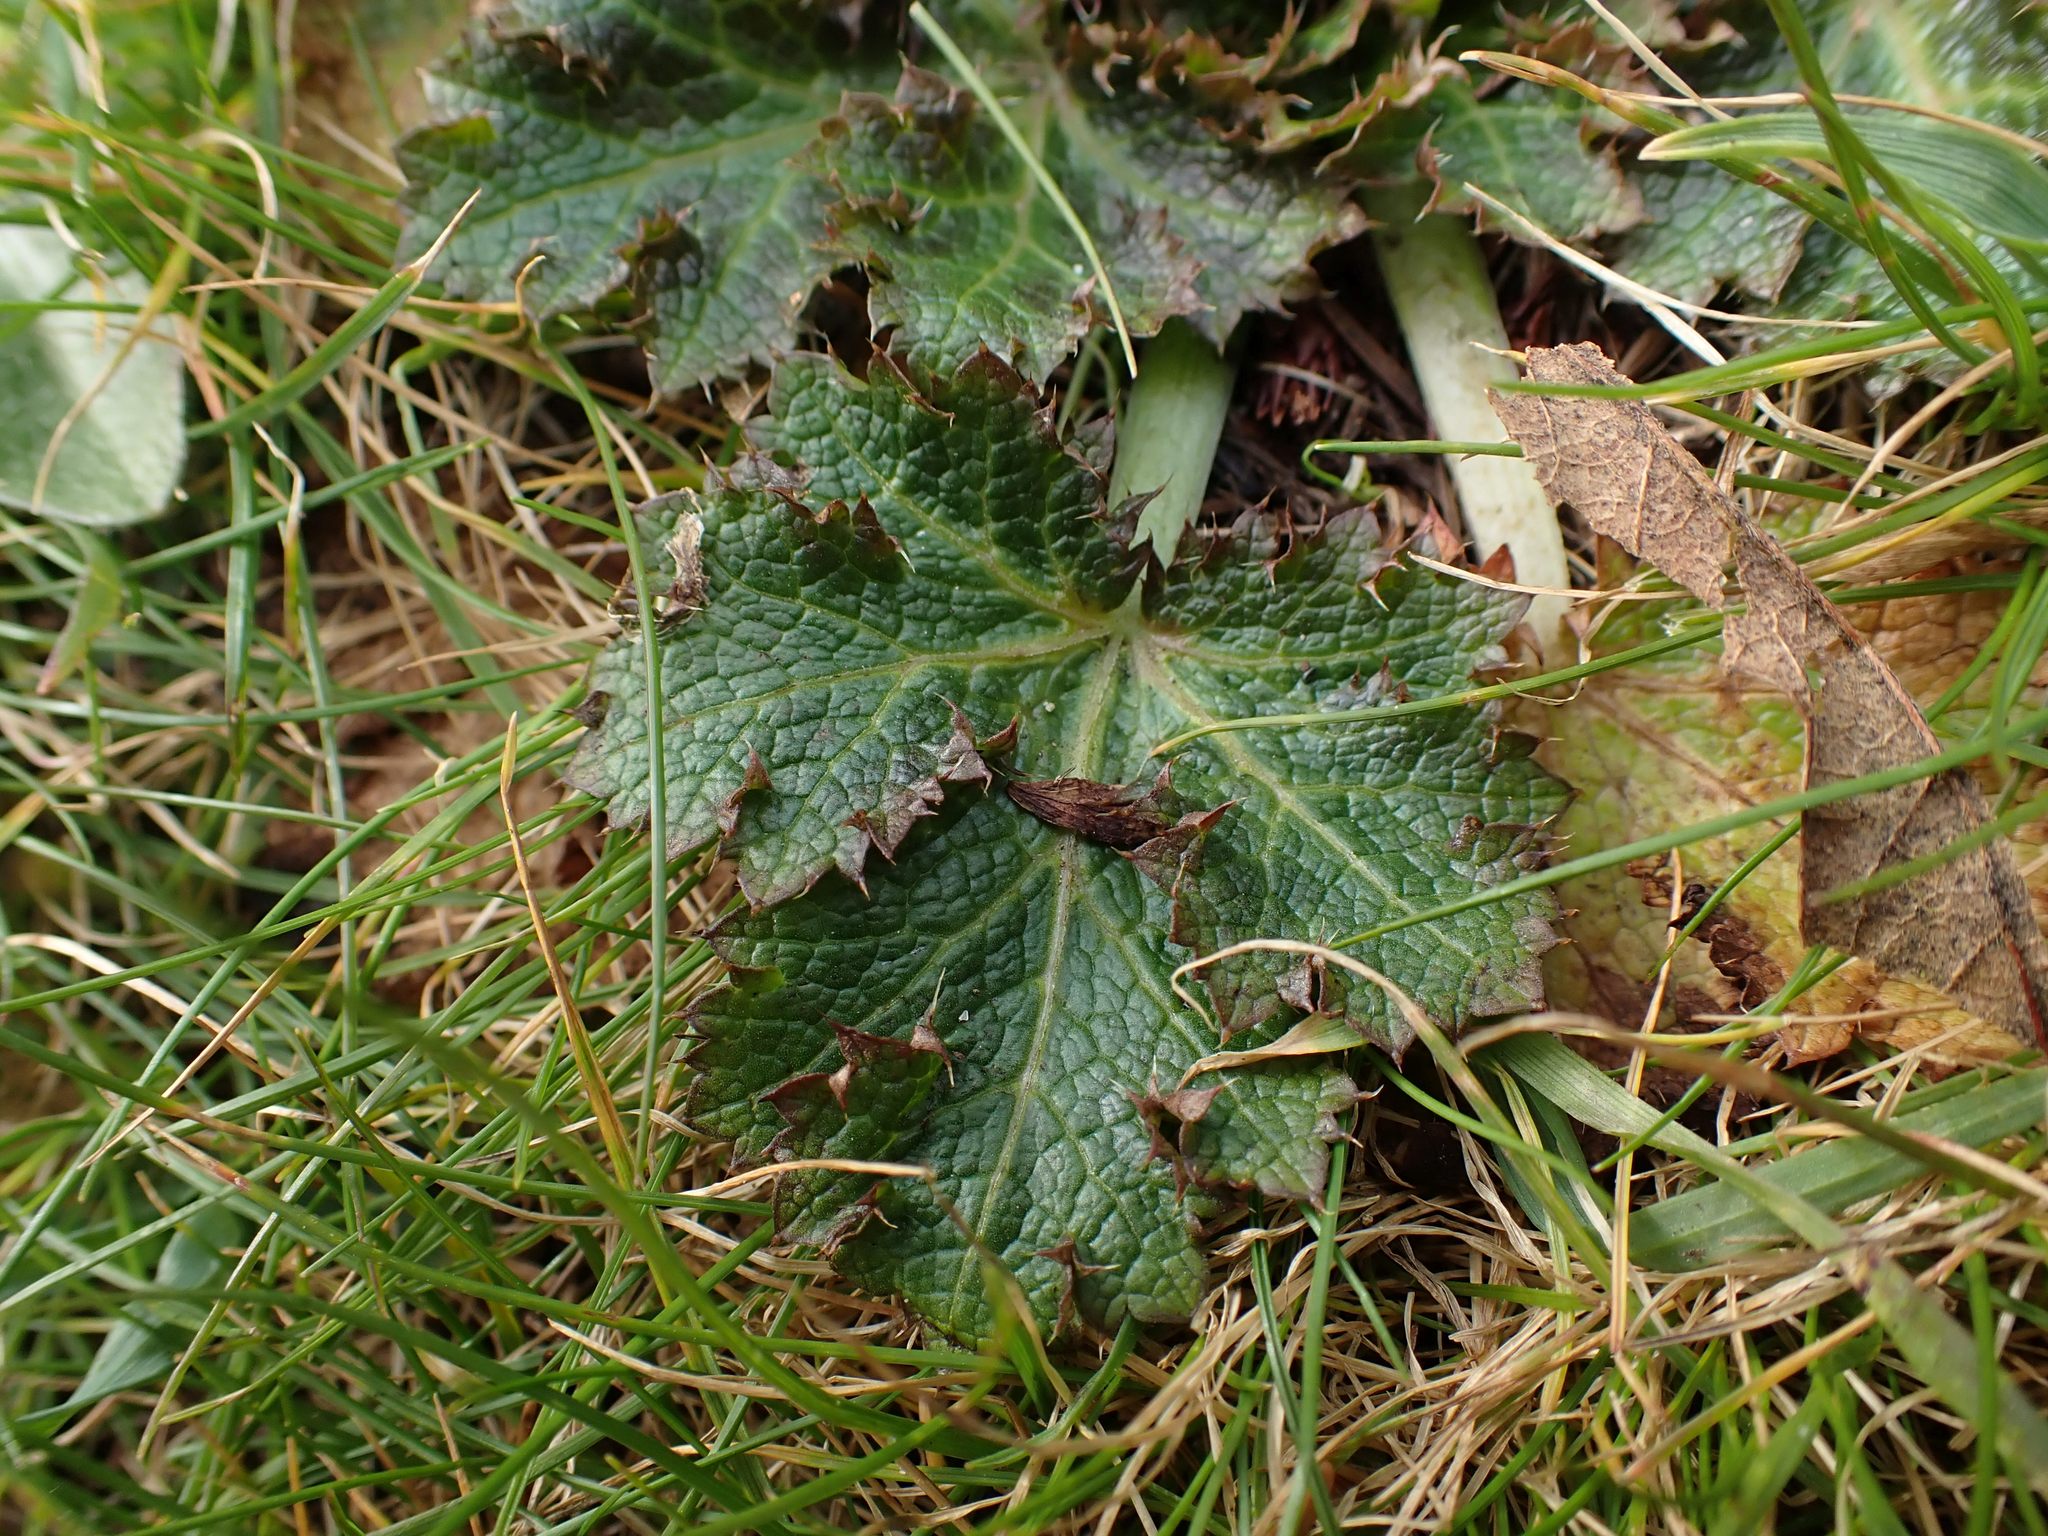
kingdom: Plantae
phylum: Tracheophyta
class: Magnoliopsida
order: Apiales
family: Apiaceae
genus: Sanicula
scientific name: Sanicula crassicaulis
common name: Western snakeroot
